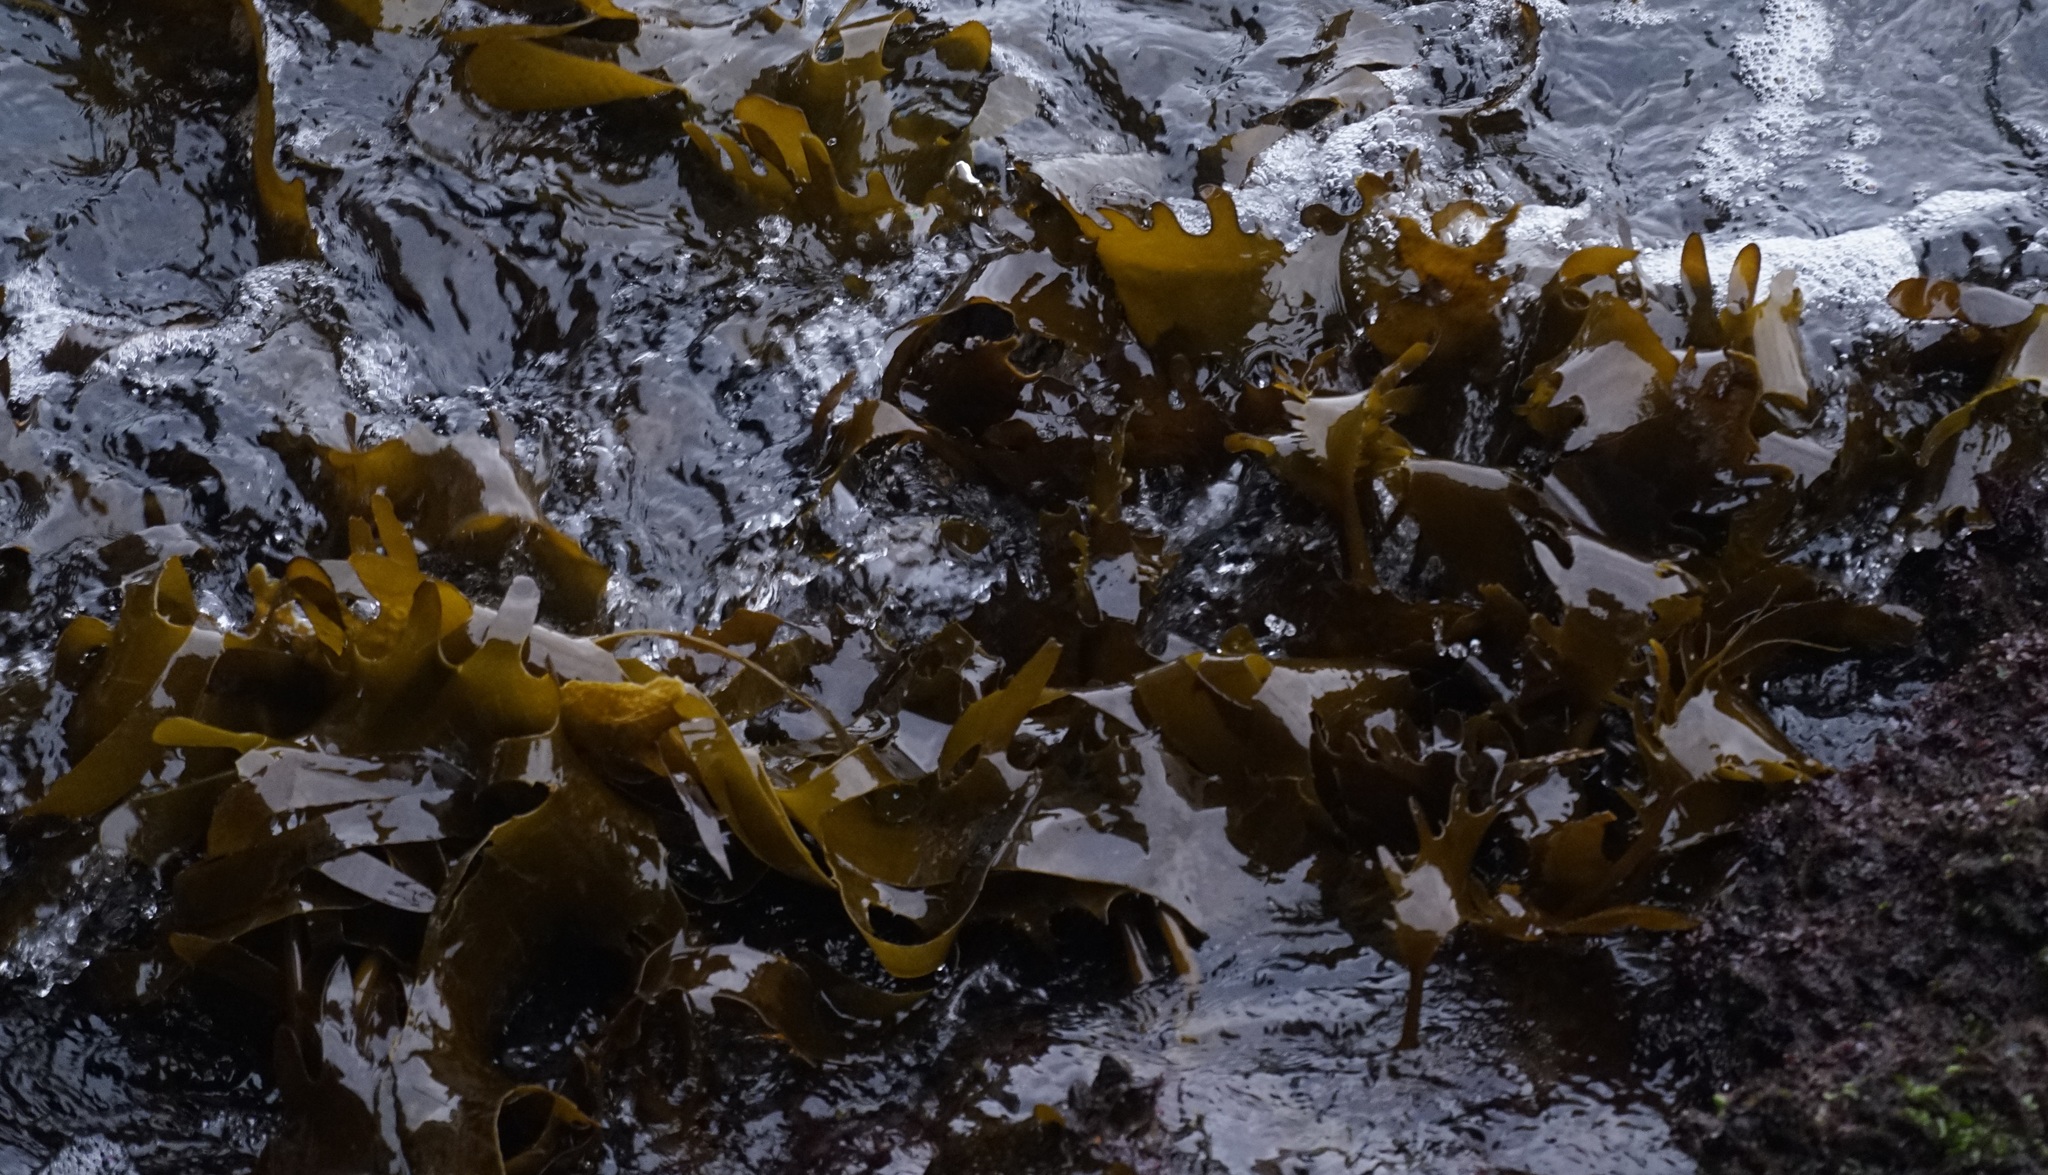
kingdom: Chromista
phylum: Ochrophyta
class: Phaeophyceae
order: Laminariales
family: Lessoniaceae
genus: Ecklonia
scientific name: Ecklonia radiata
